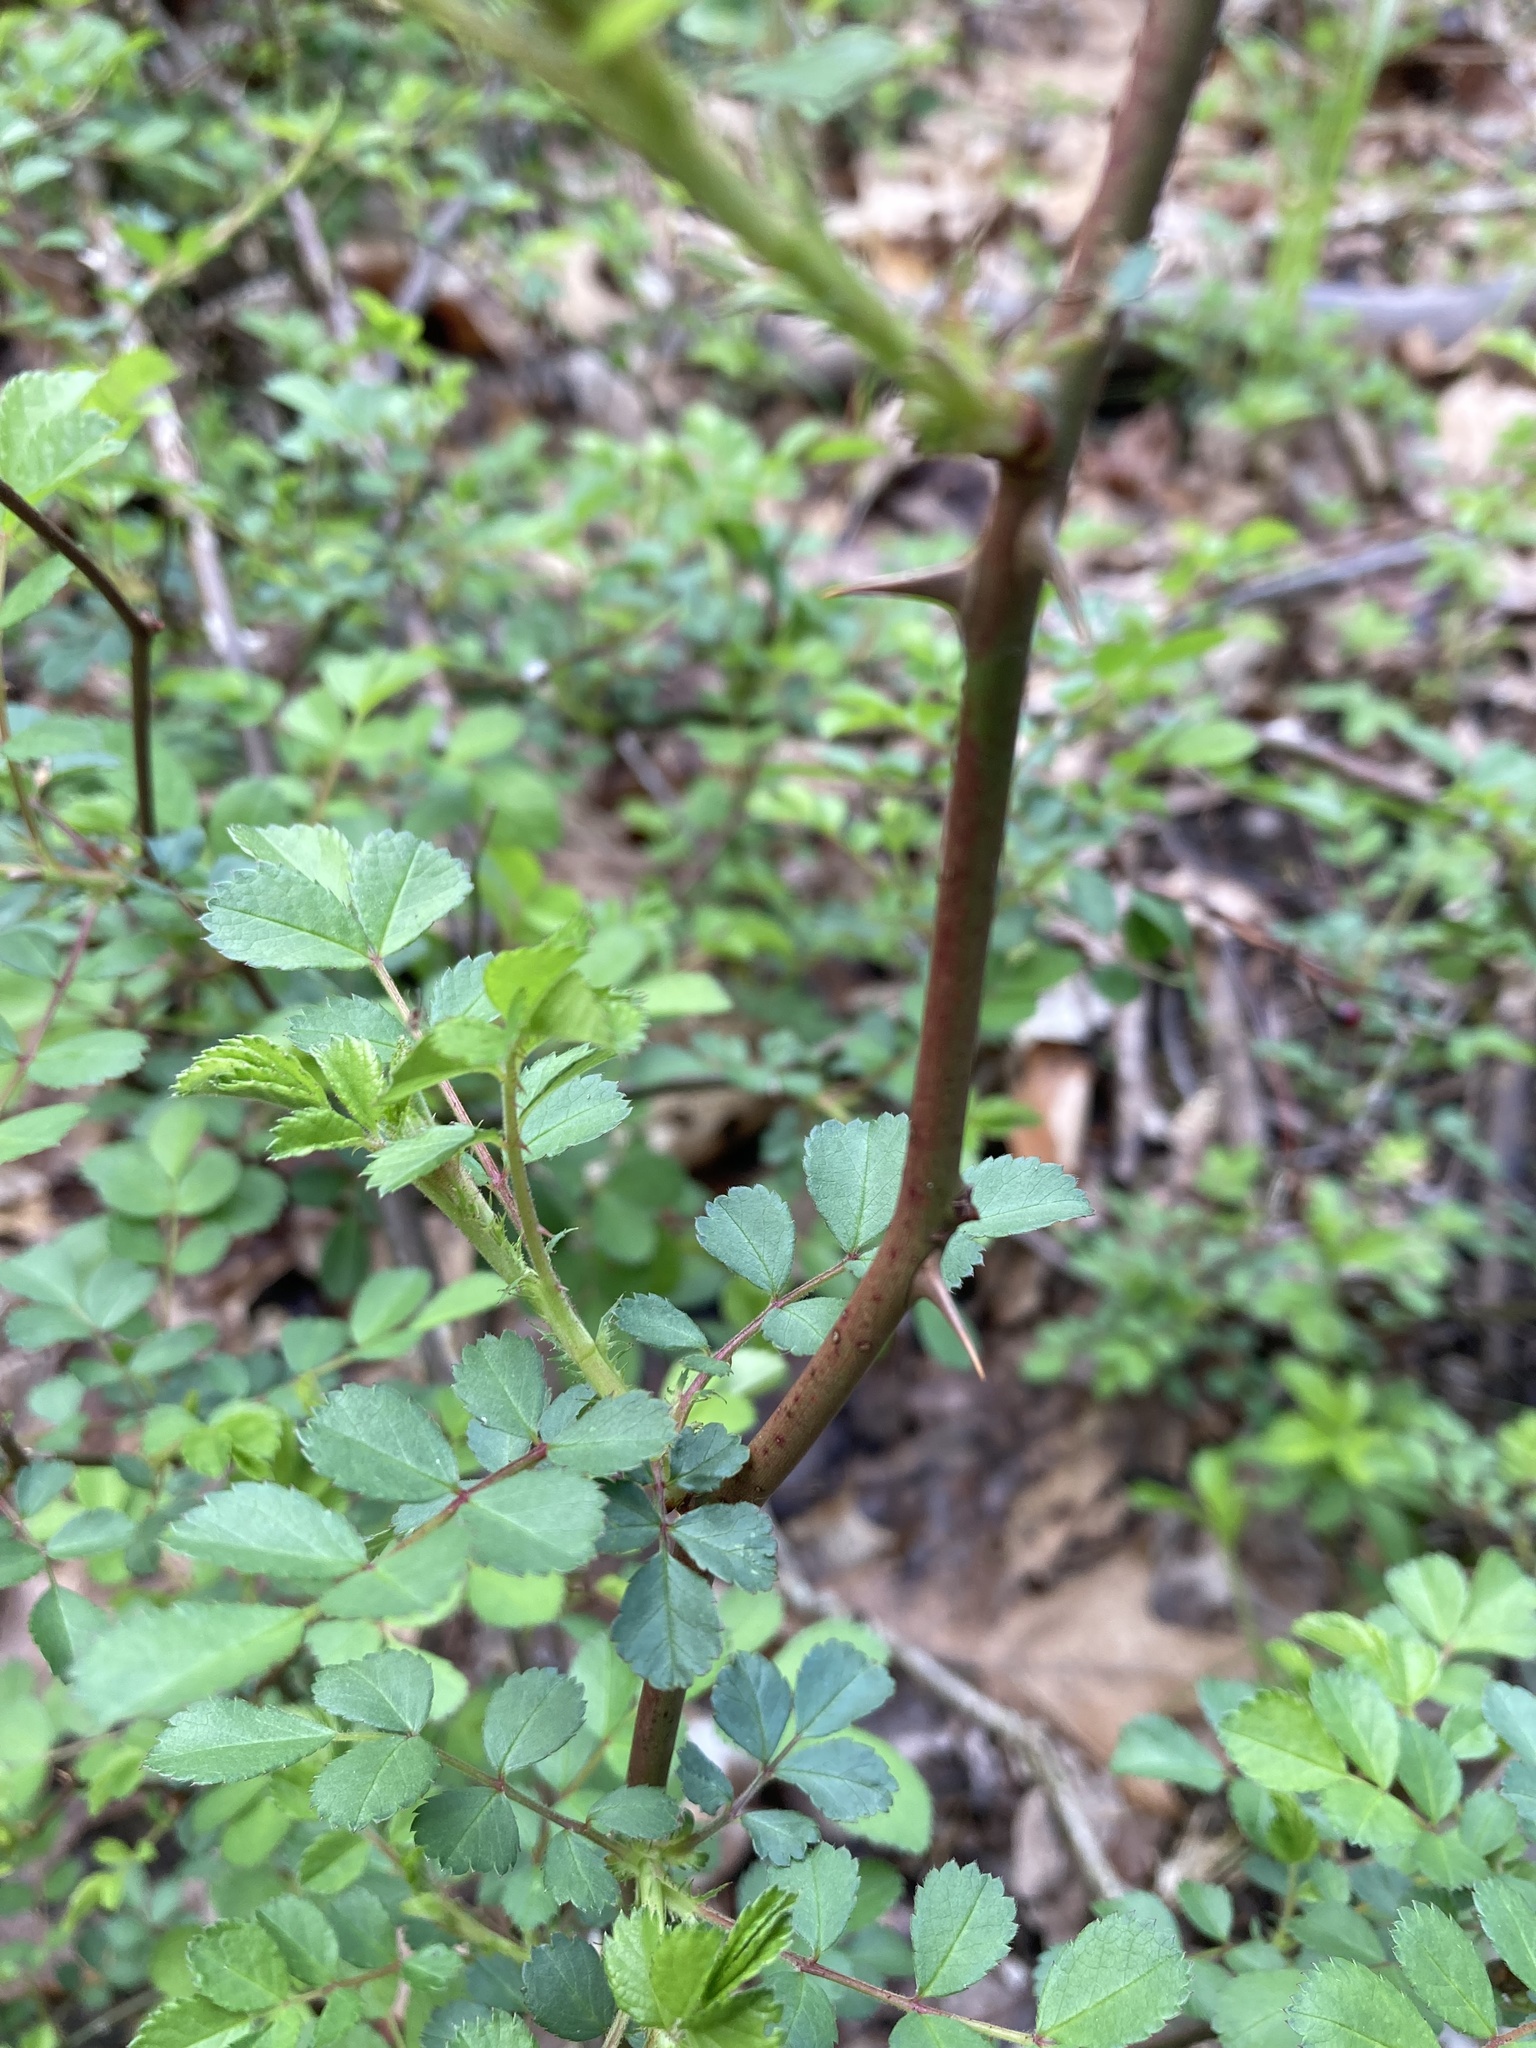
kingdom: Plantae
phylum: Tracheophyta
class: Magnoliopsida
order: Rosales
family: Rosaceae
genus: Rosa
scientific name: Rosa multiflora
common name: Multiflora rose
